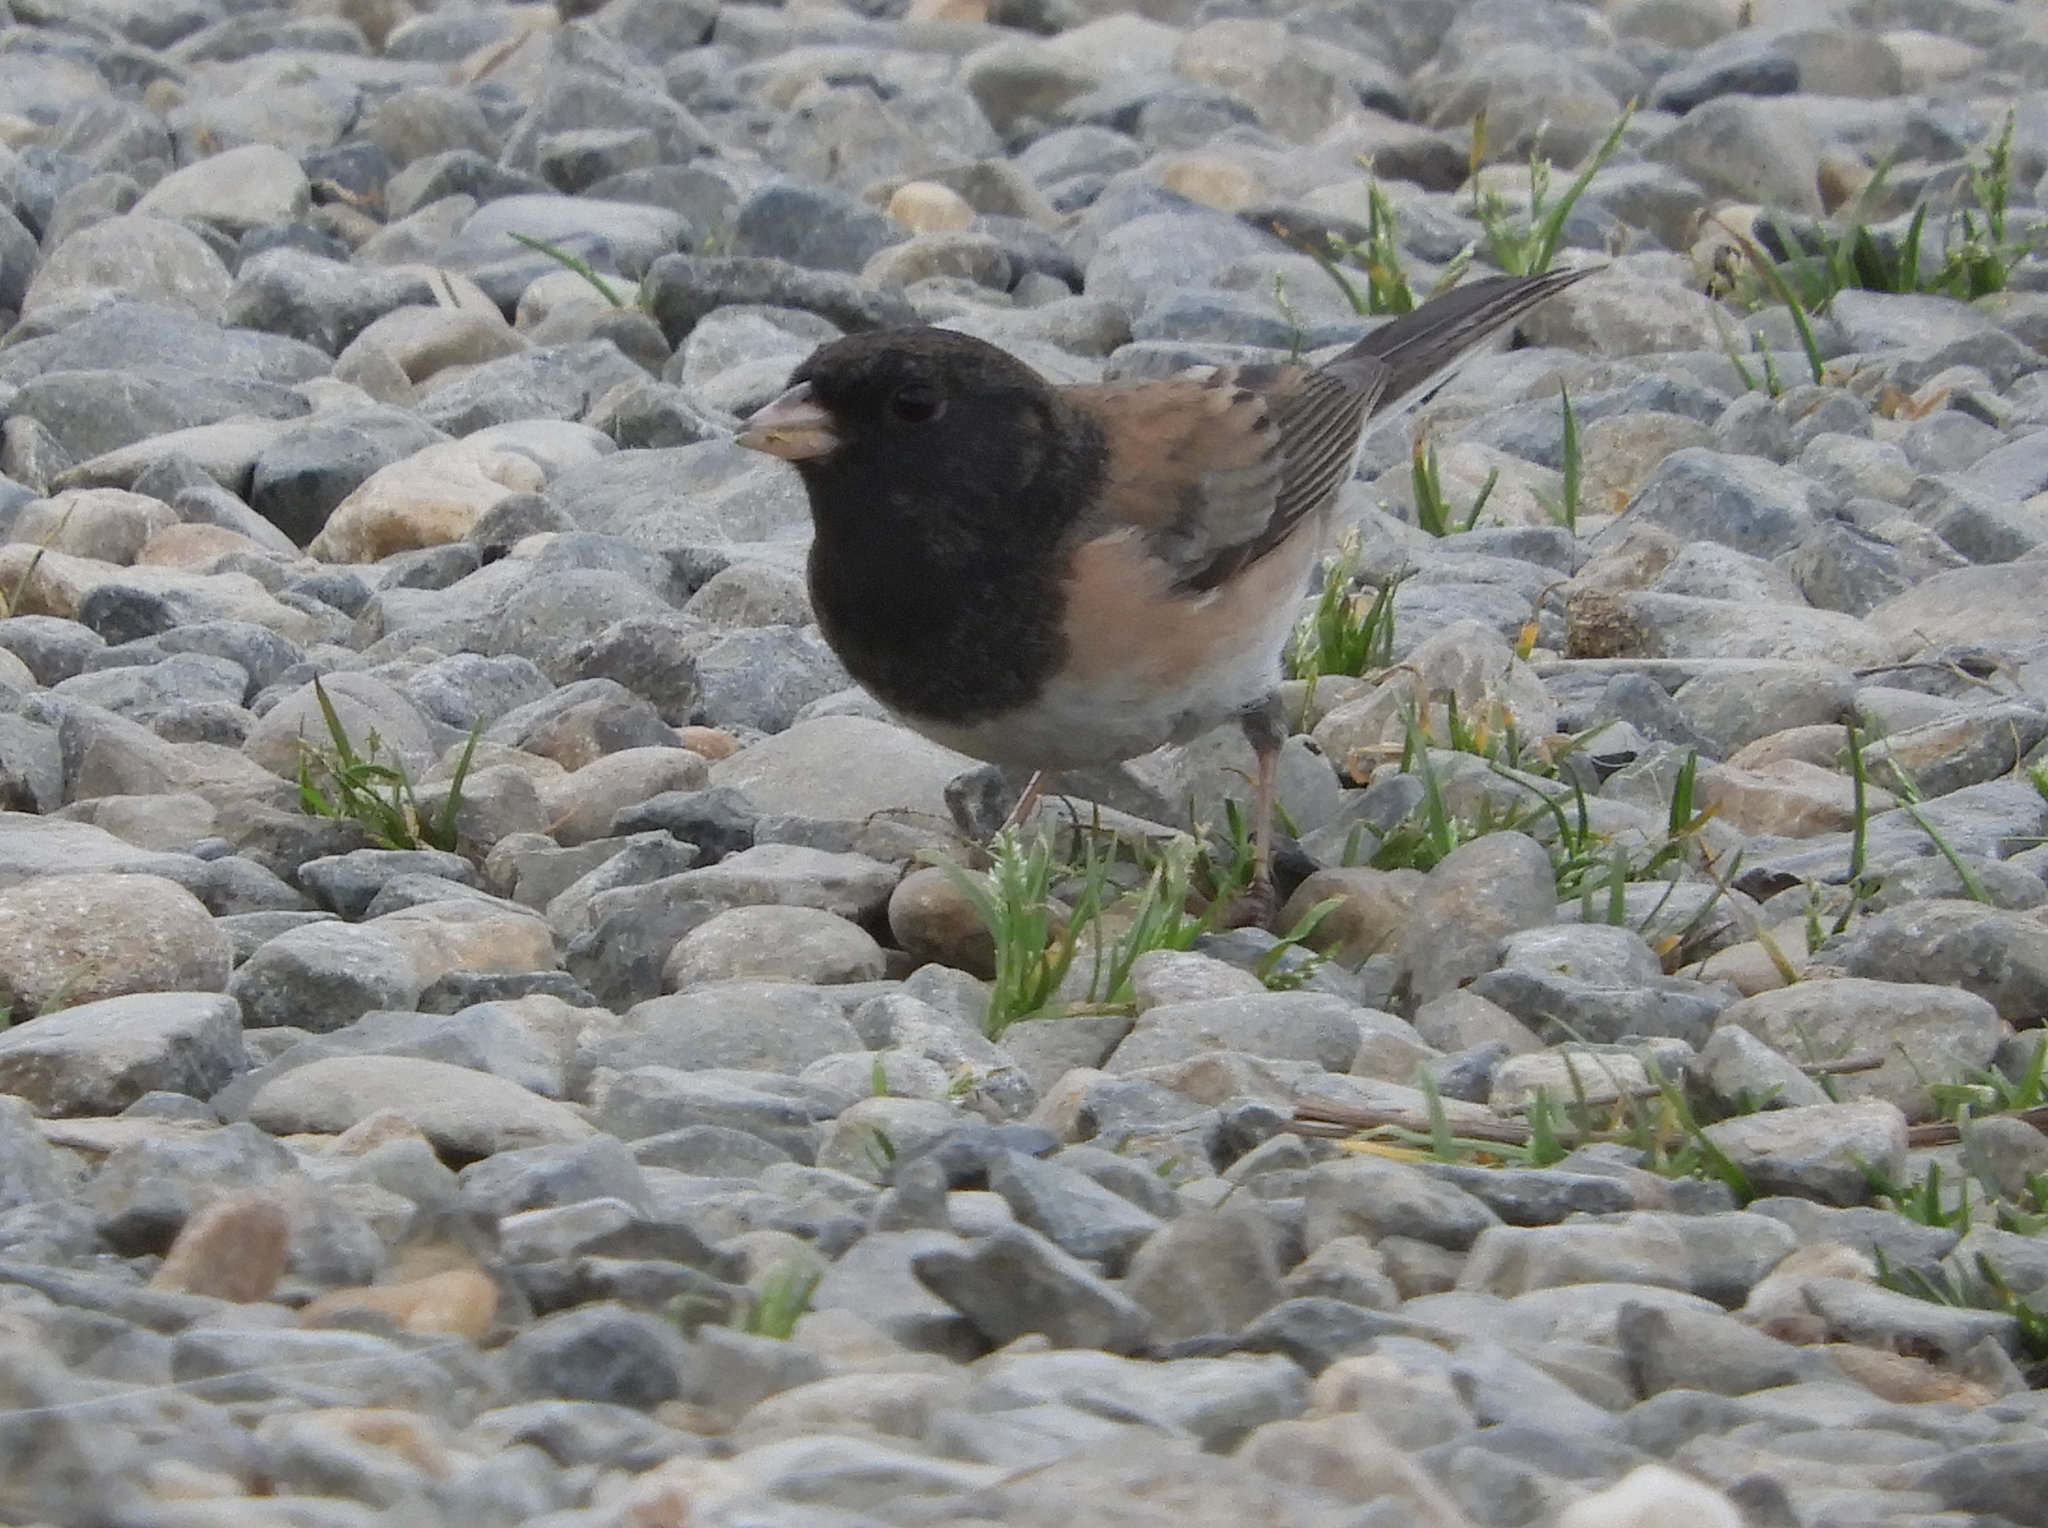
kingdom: Animalia
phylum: Chordata
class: Aves
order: Passeriformes
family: Passerellidae
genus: Junco
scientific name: Junco hyemalis
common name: Dark-eyed junco
